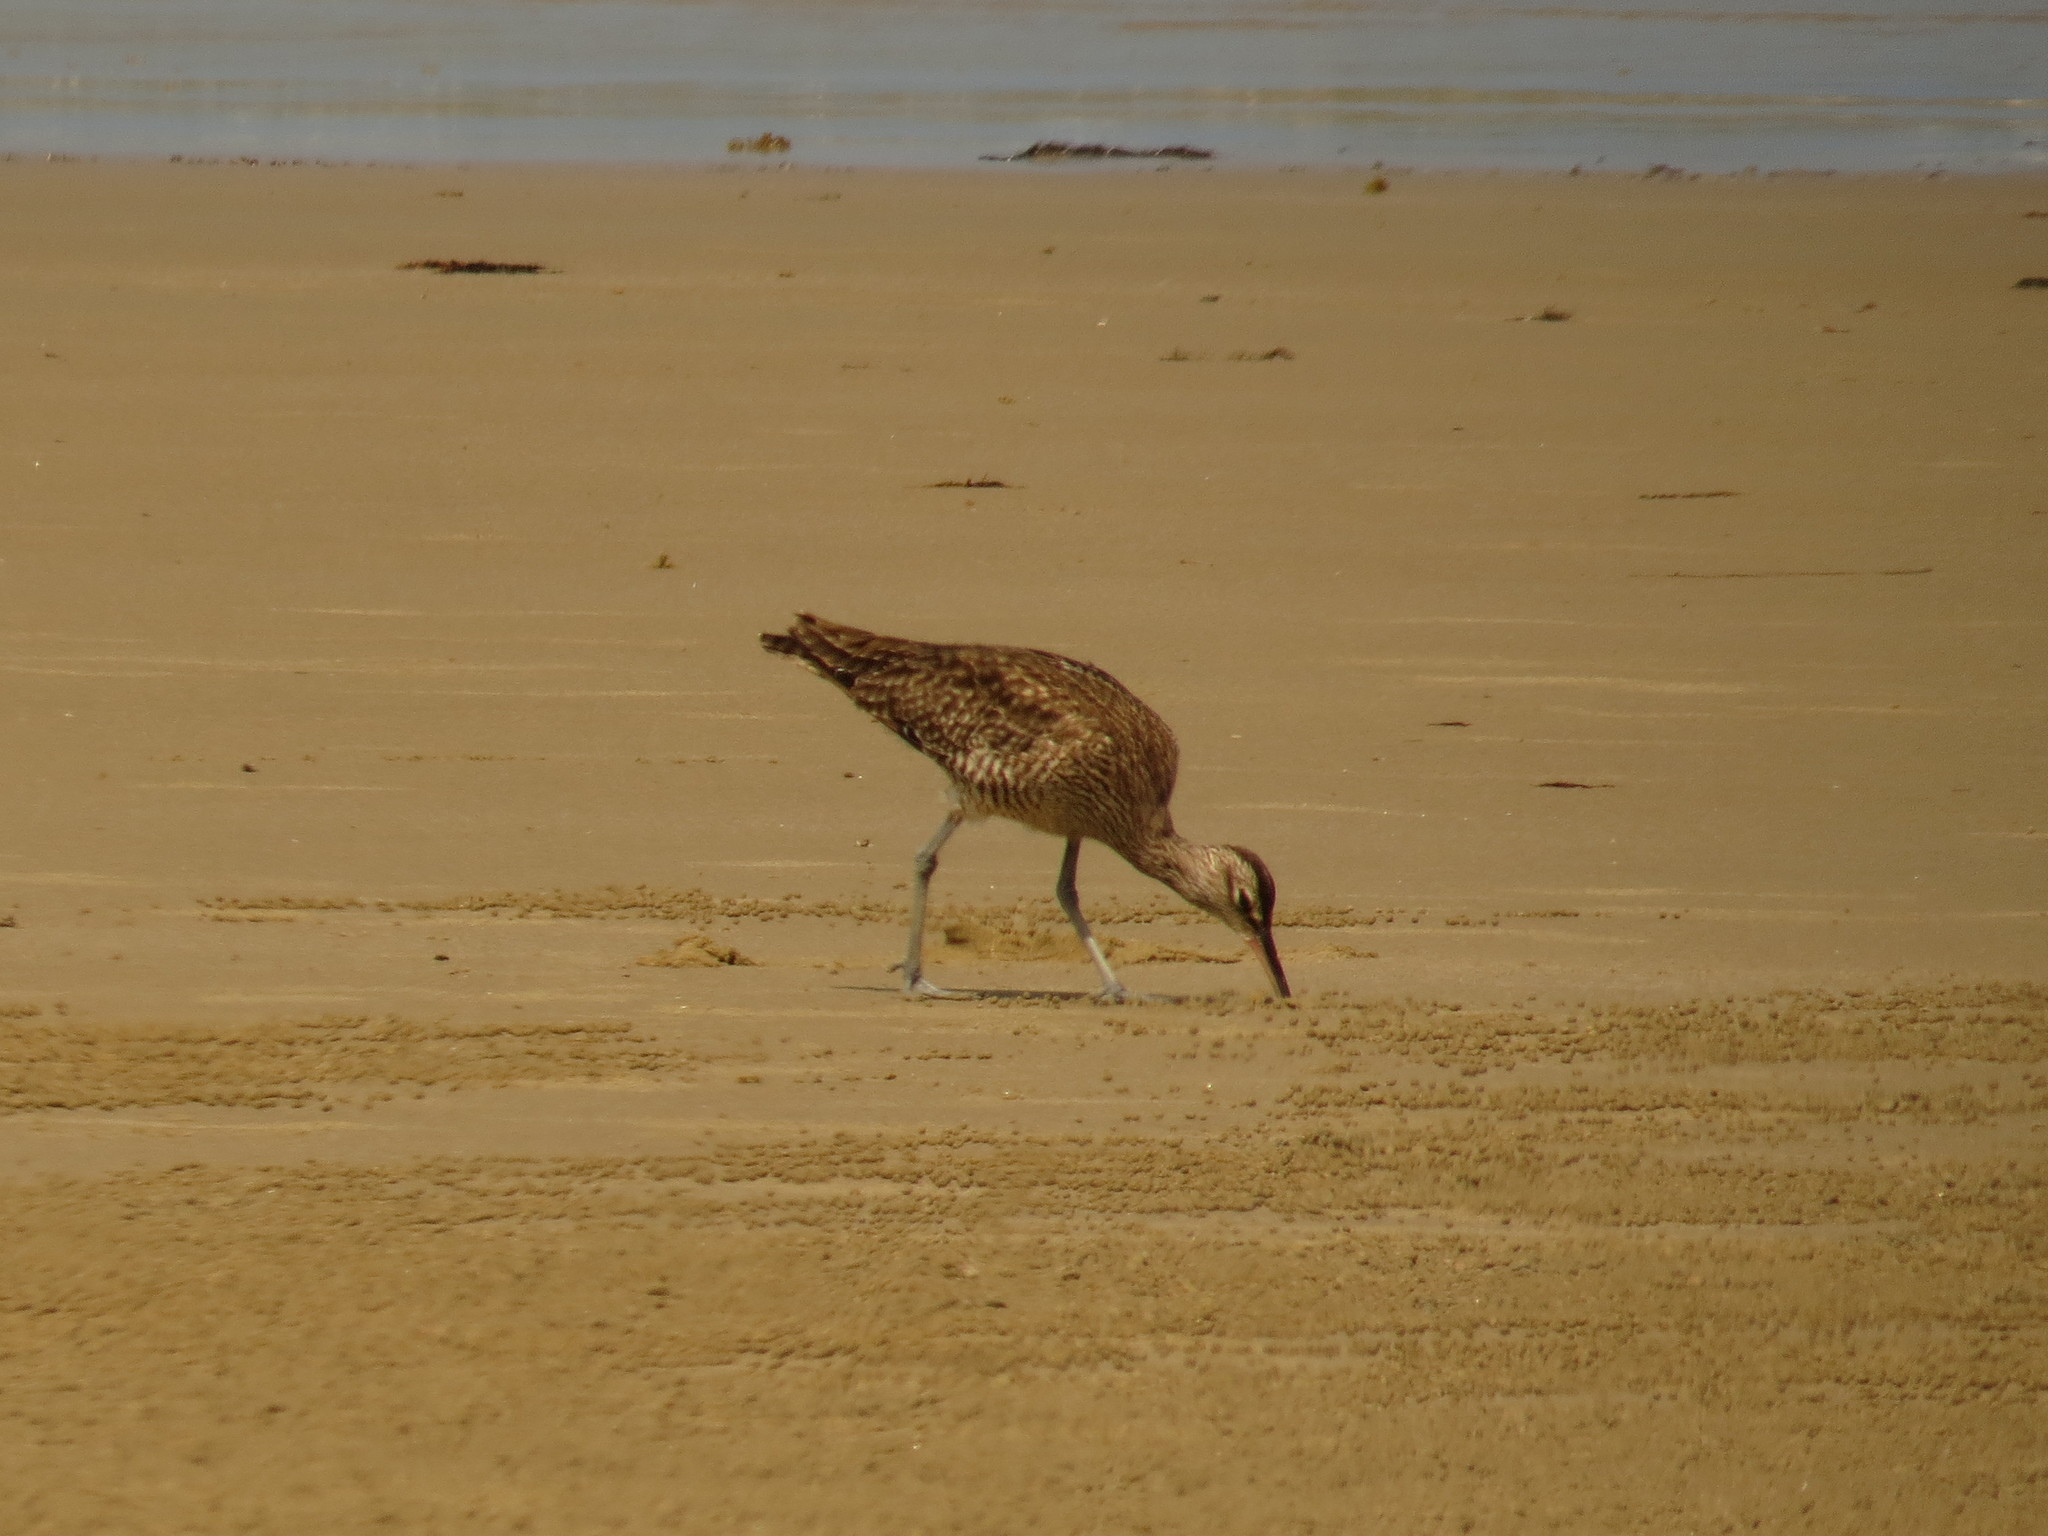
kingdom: Animalia
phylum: Chordata
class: Aves
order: Charadriiformes
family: Scolopacidae
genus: Numenius
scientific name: Numenius phaeopus
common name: Whimbrel
